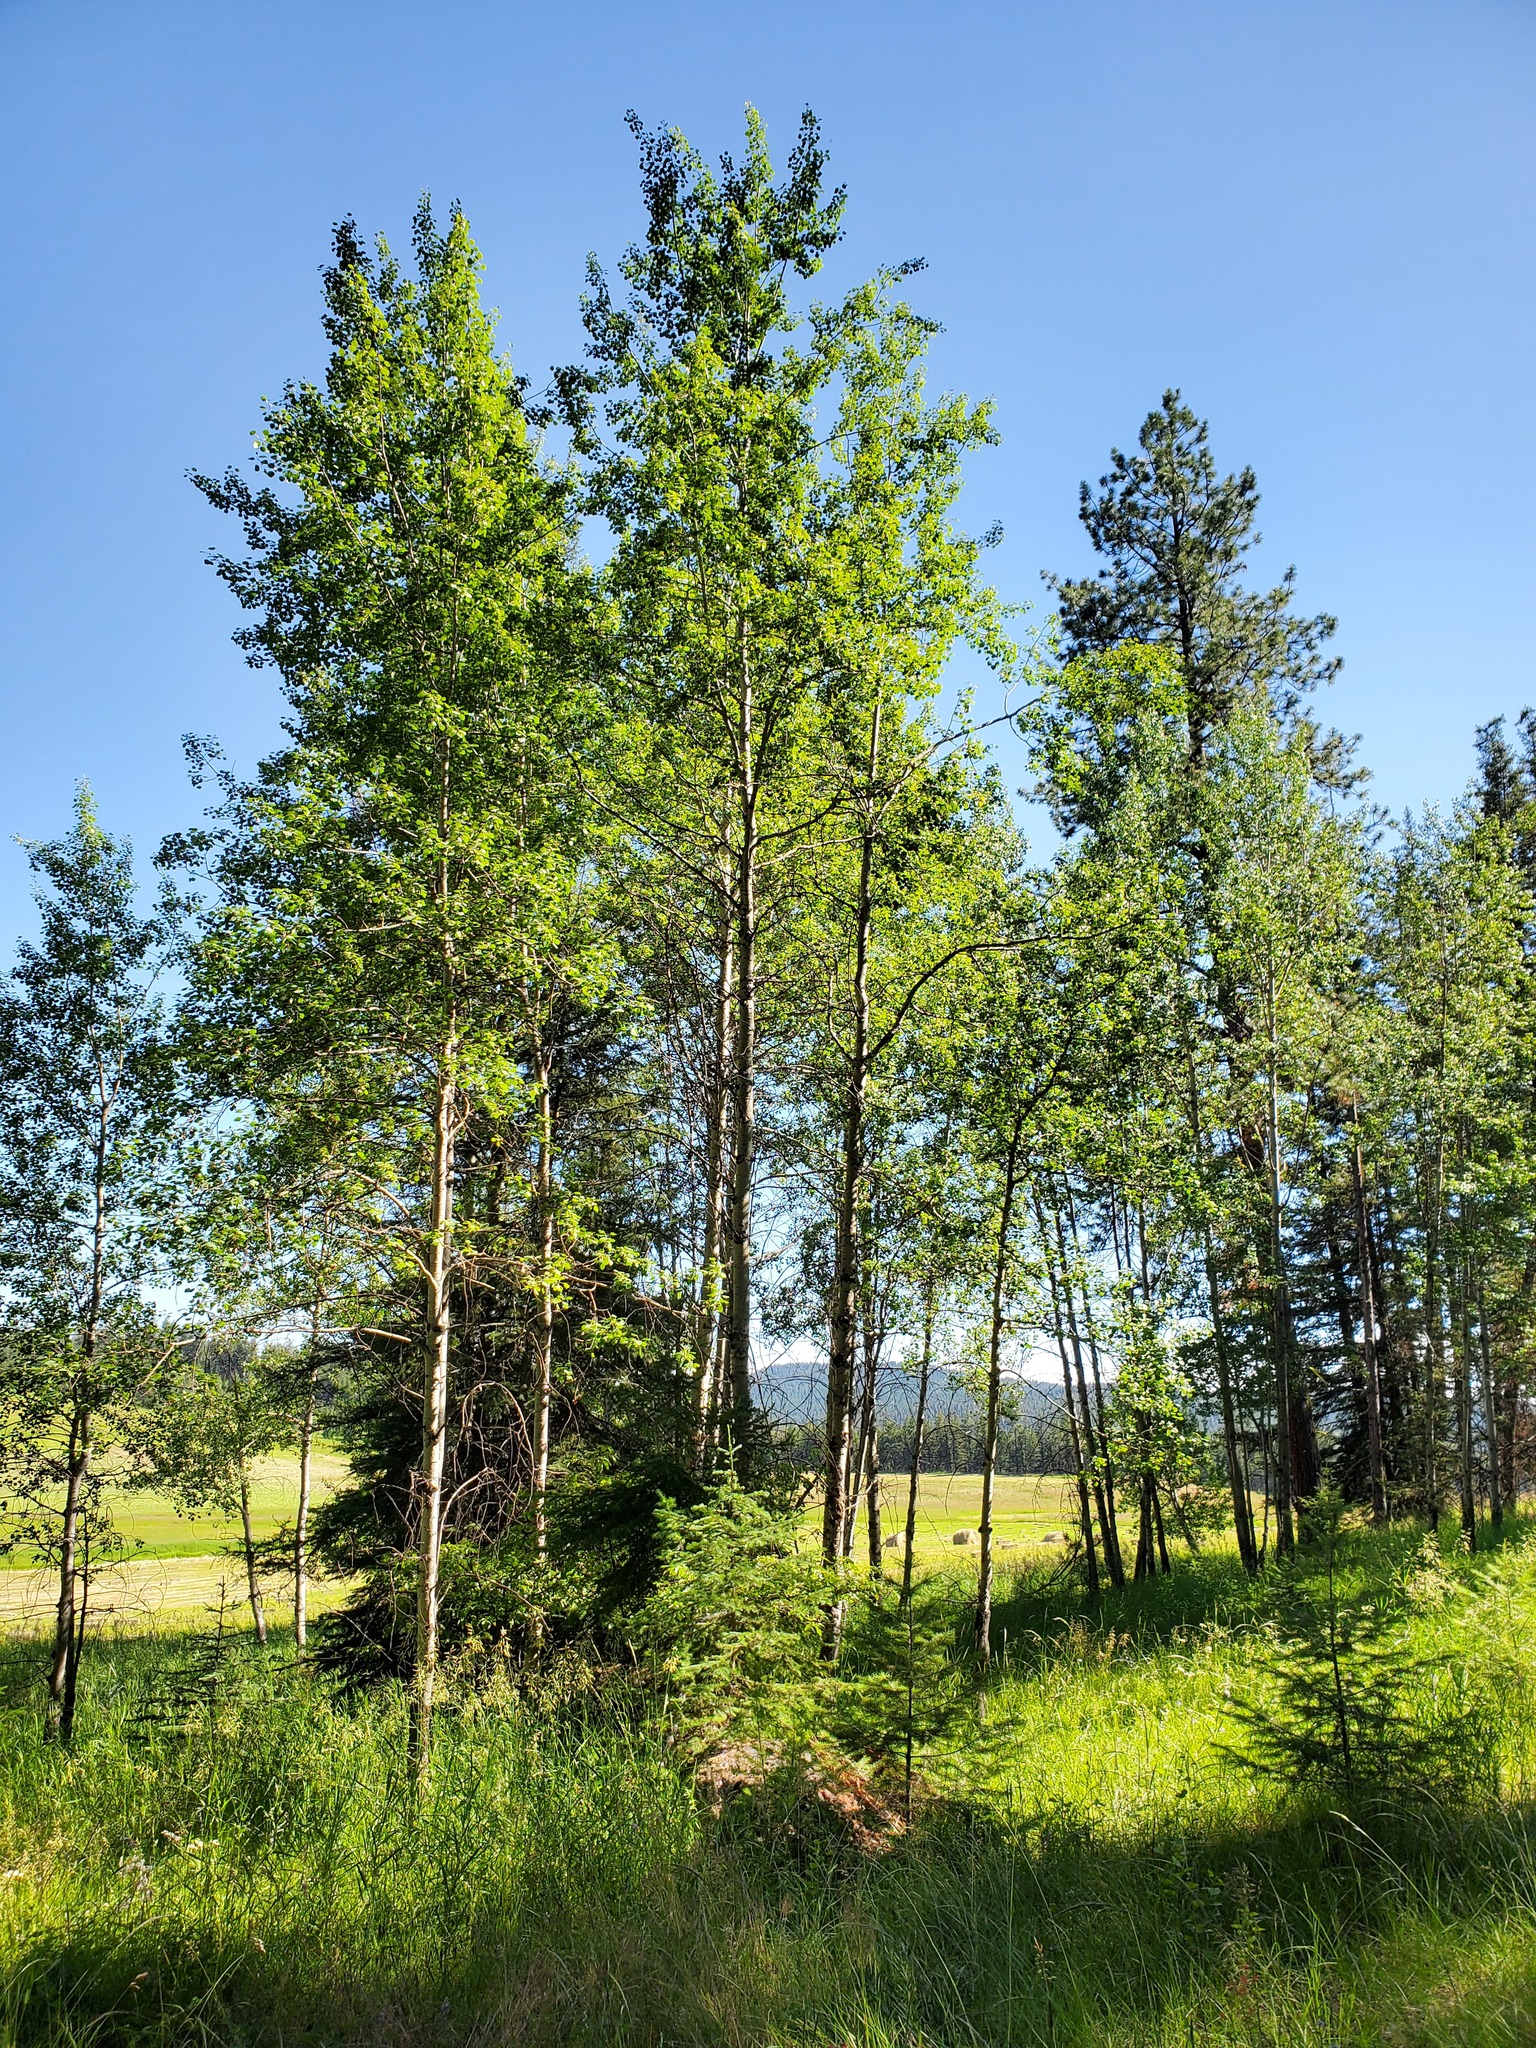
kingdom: Plantae
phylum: Tracheophyta
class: Magnoliopsida
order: Malpighiales
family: Salicaceae
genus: Populus
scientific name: Populus tremuloides
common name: Quaking aspen
